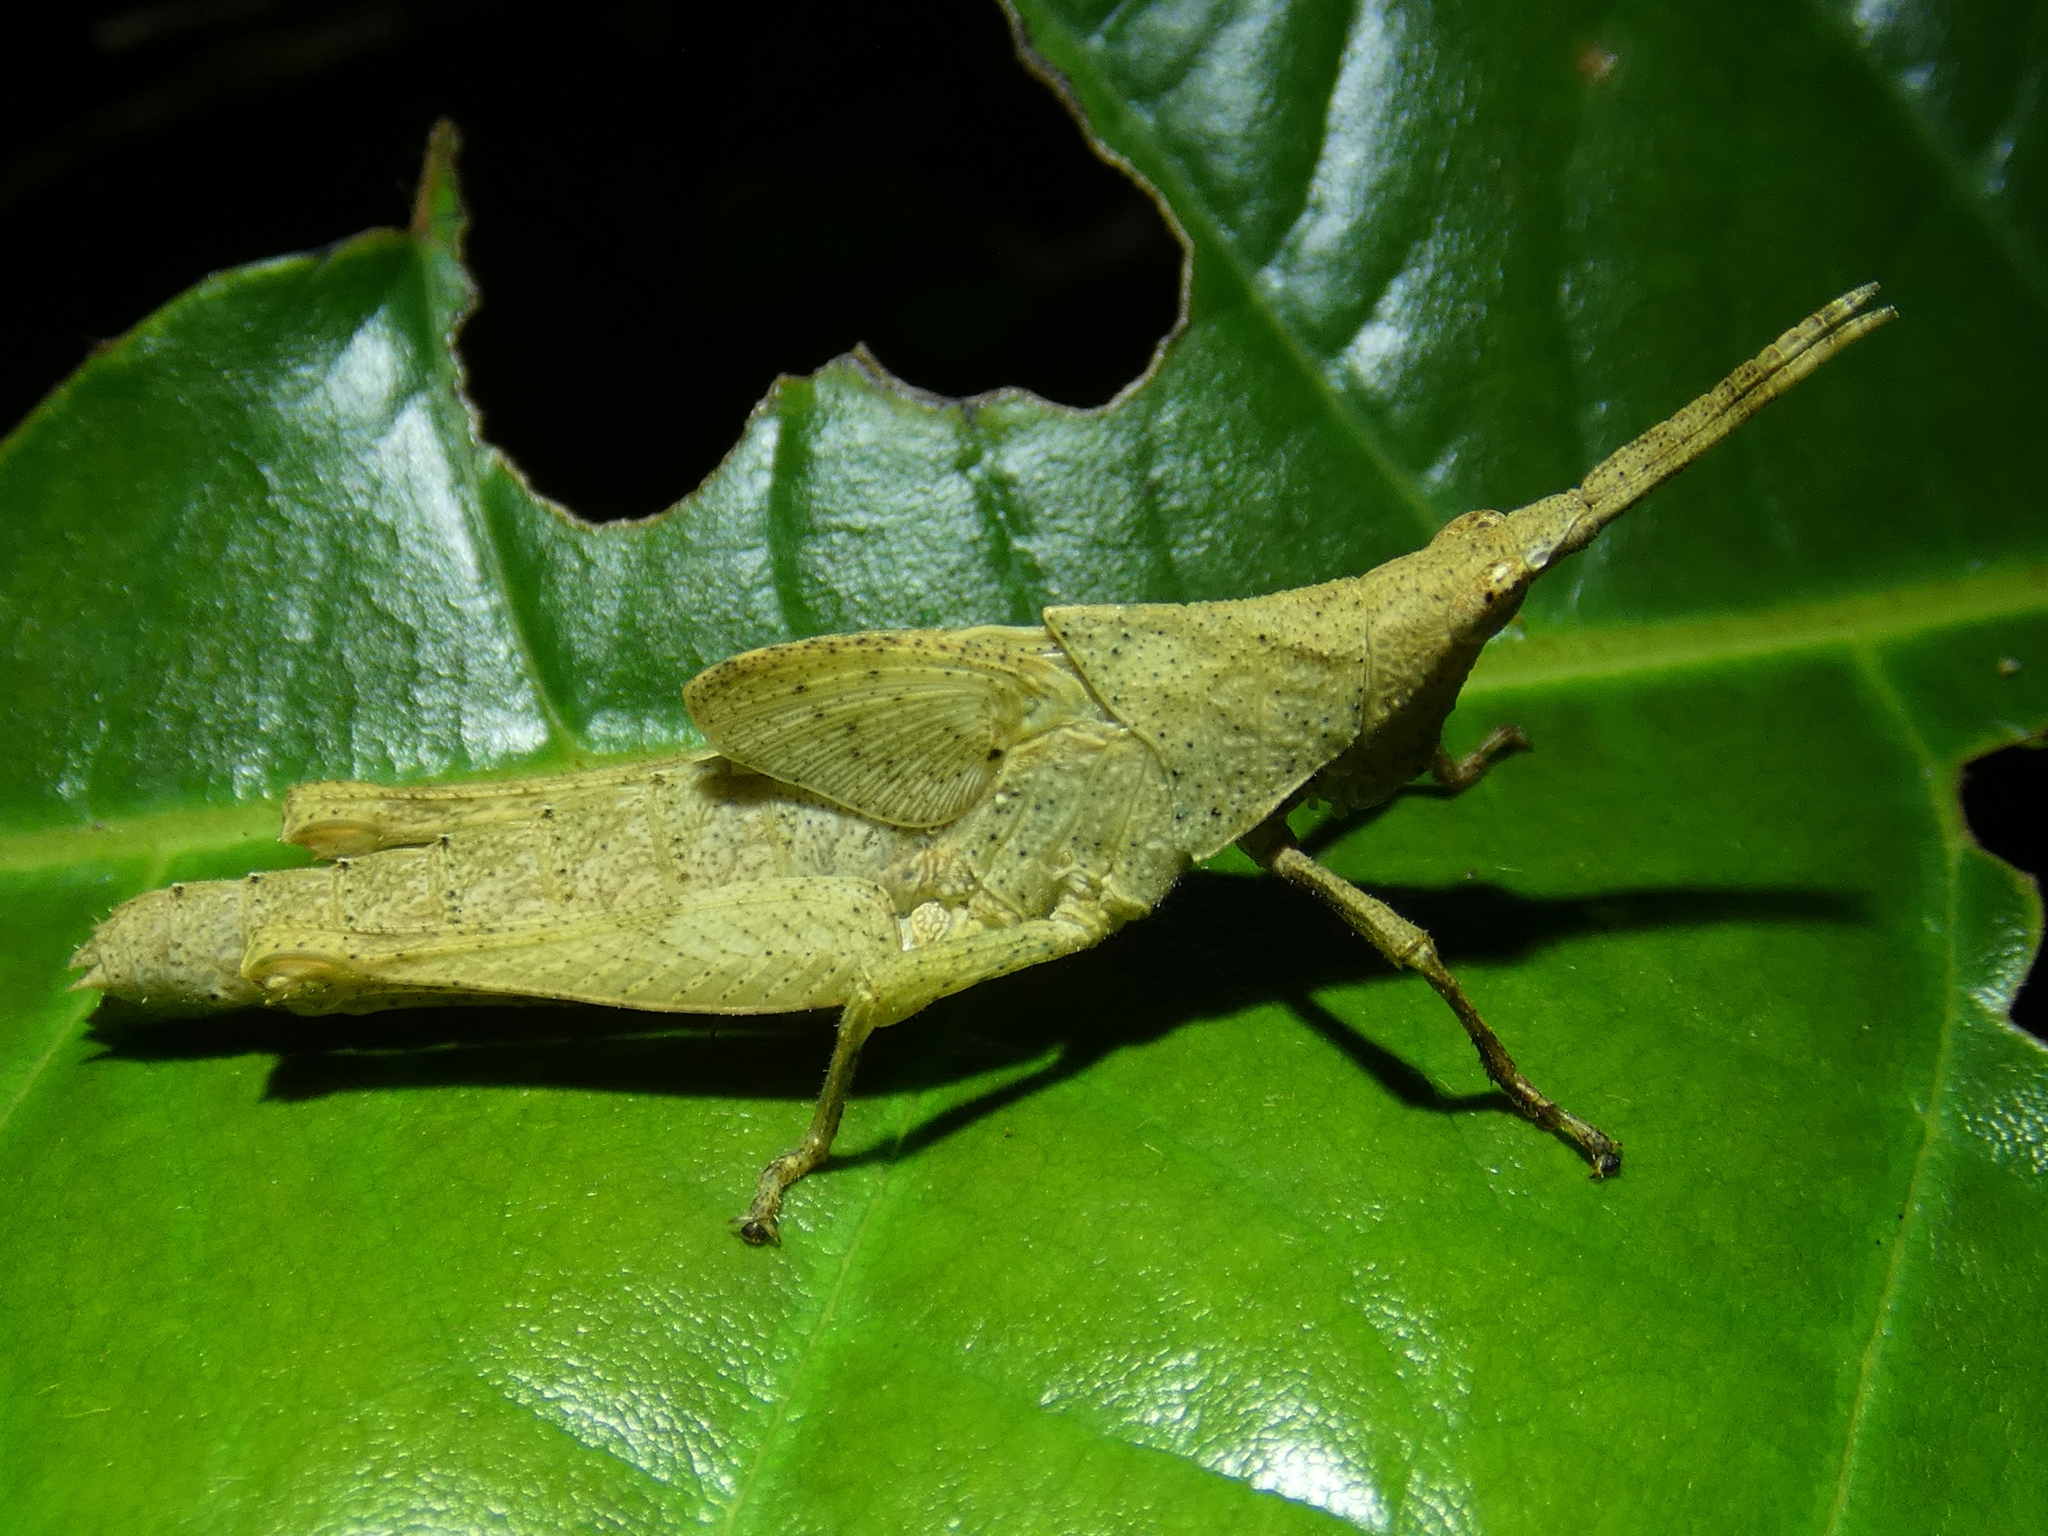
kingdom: Animalia
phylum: Arthropoda
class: Insecta
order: Orthoptera
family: Pyrgomorphidae
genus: Desmoptera
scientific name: Desmoptera truncatipennis
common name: Large forest pyrgomorph
